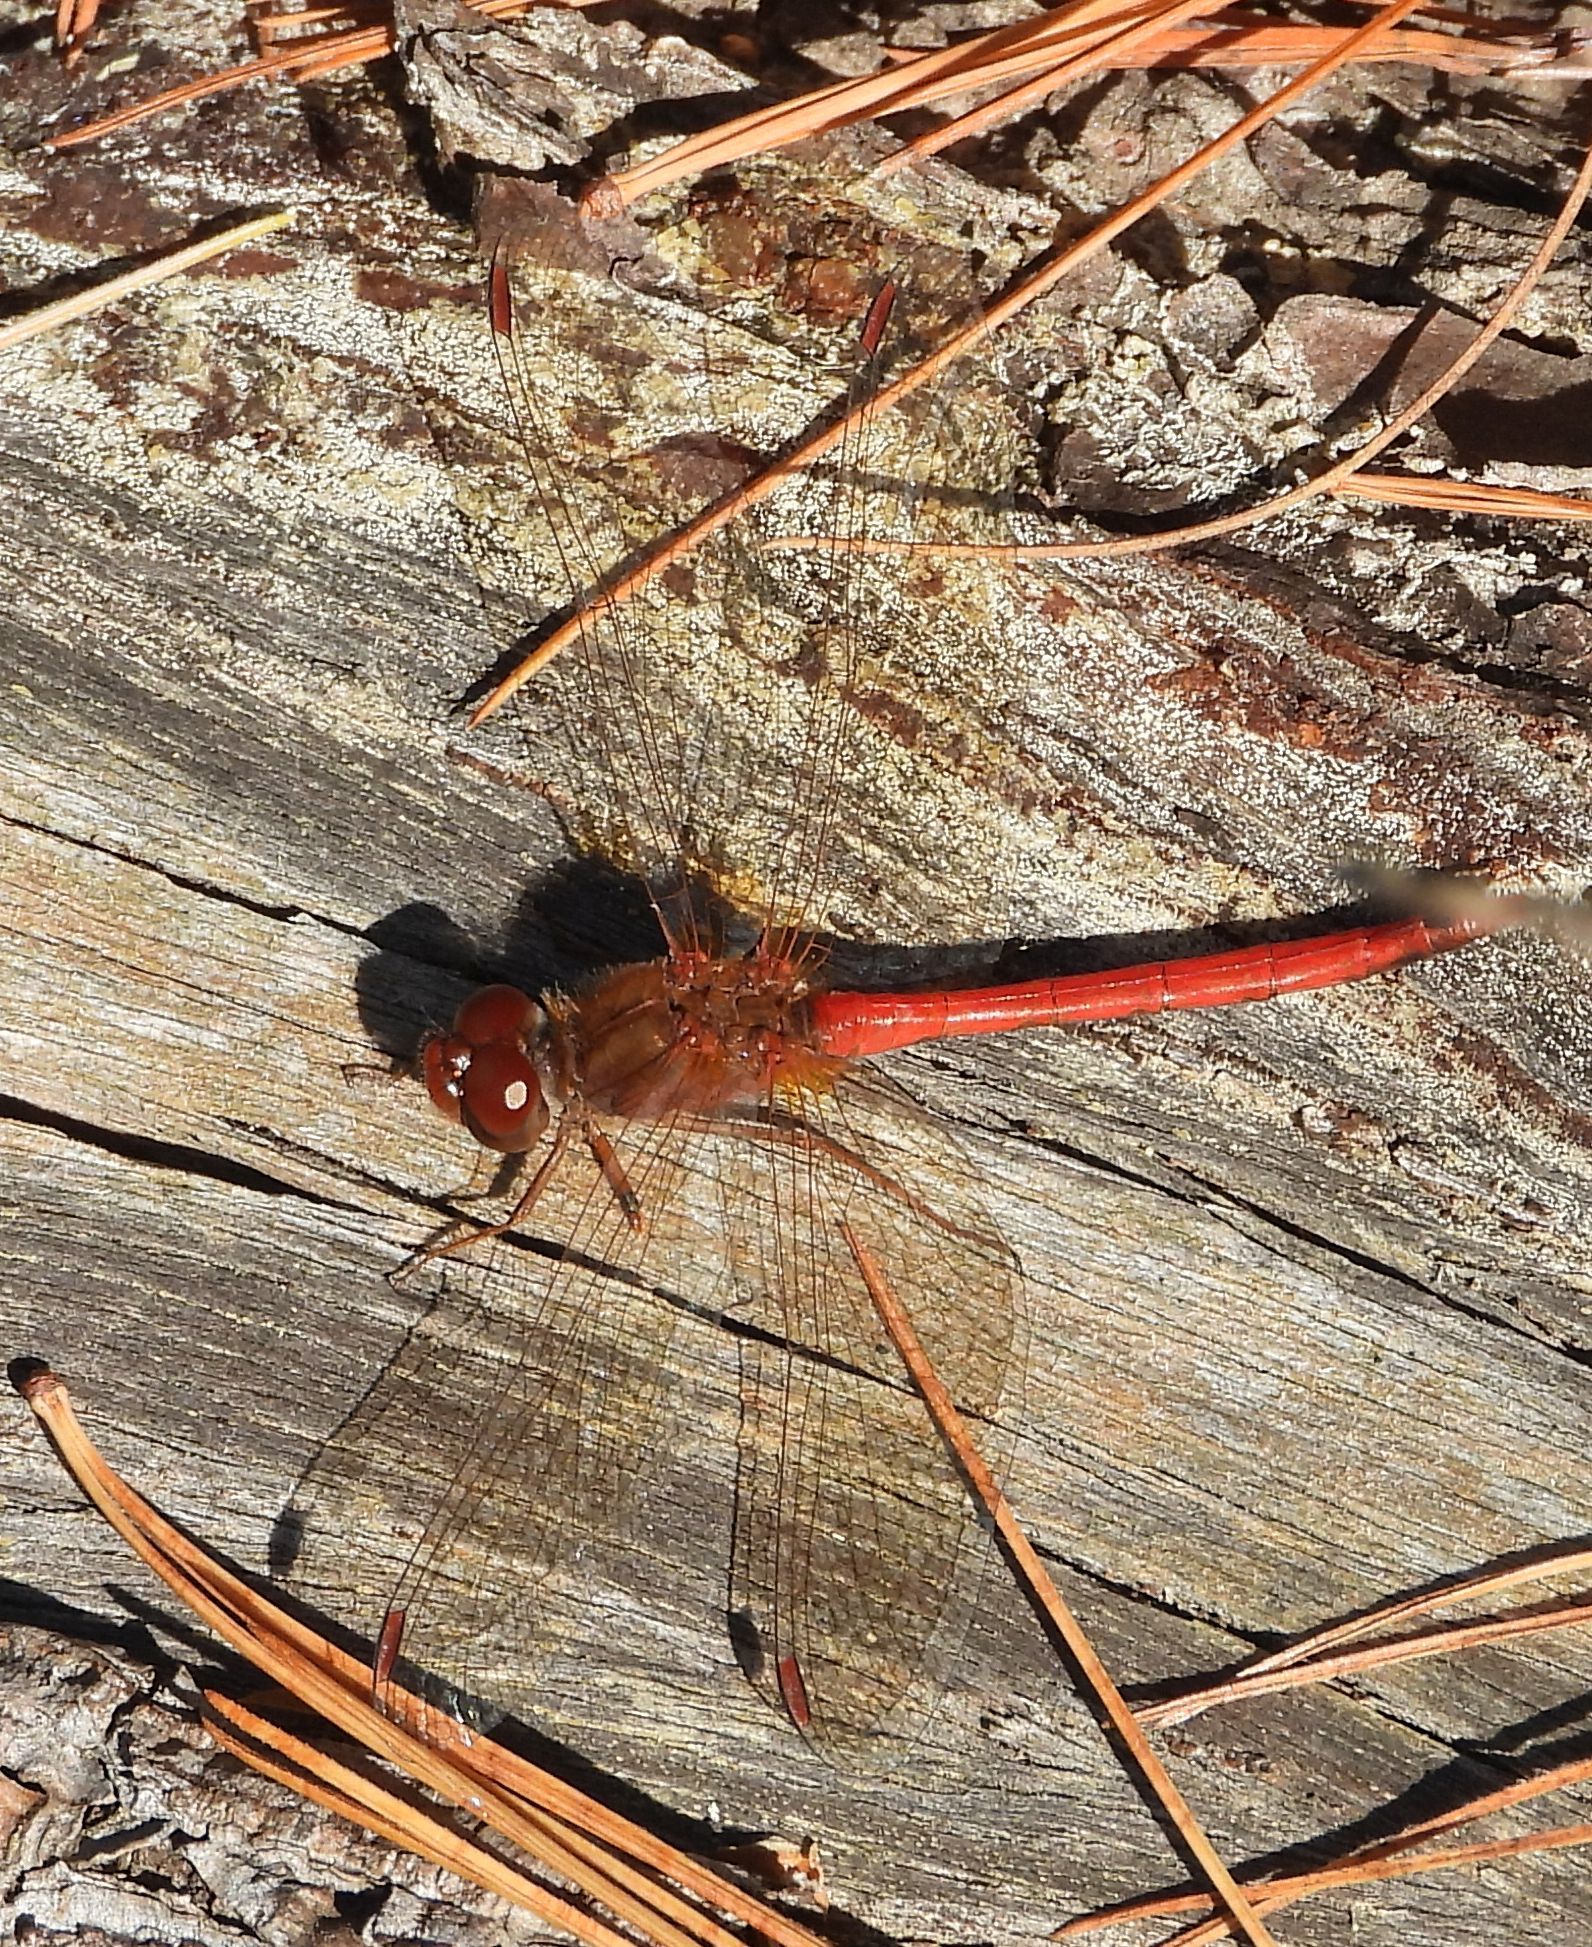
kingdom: Animalia
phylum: Arthropoda
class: Insecta
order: Odonata
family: Libellulidae
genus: Sympetrum
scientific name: Sympetrum vicinum
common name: Autumn meadowhawk
